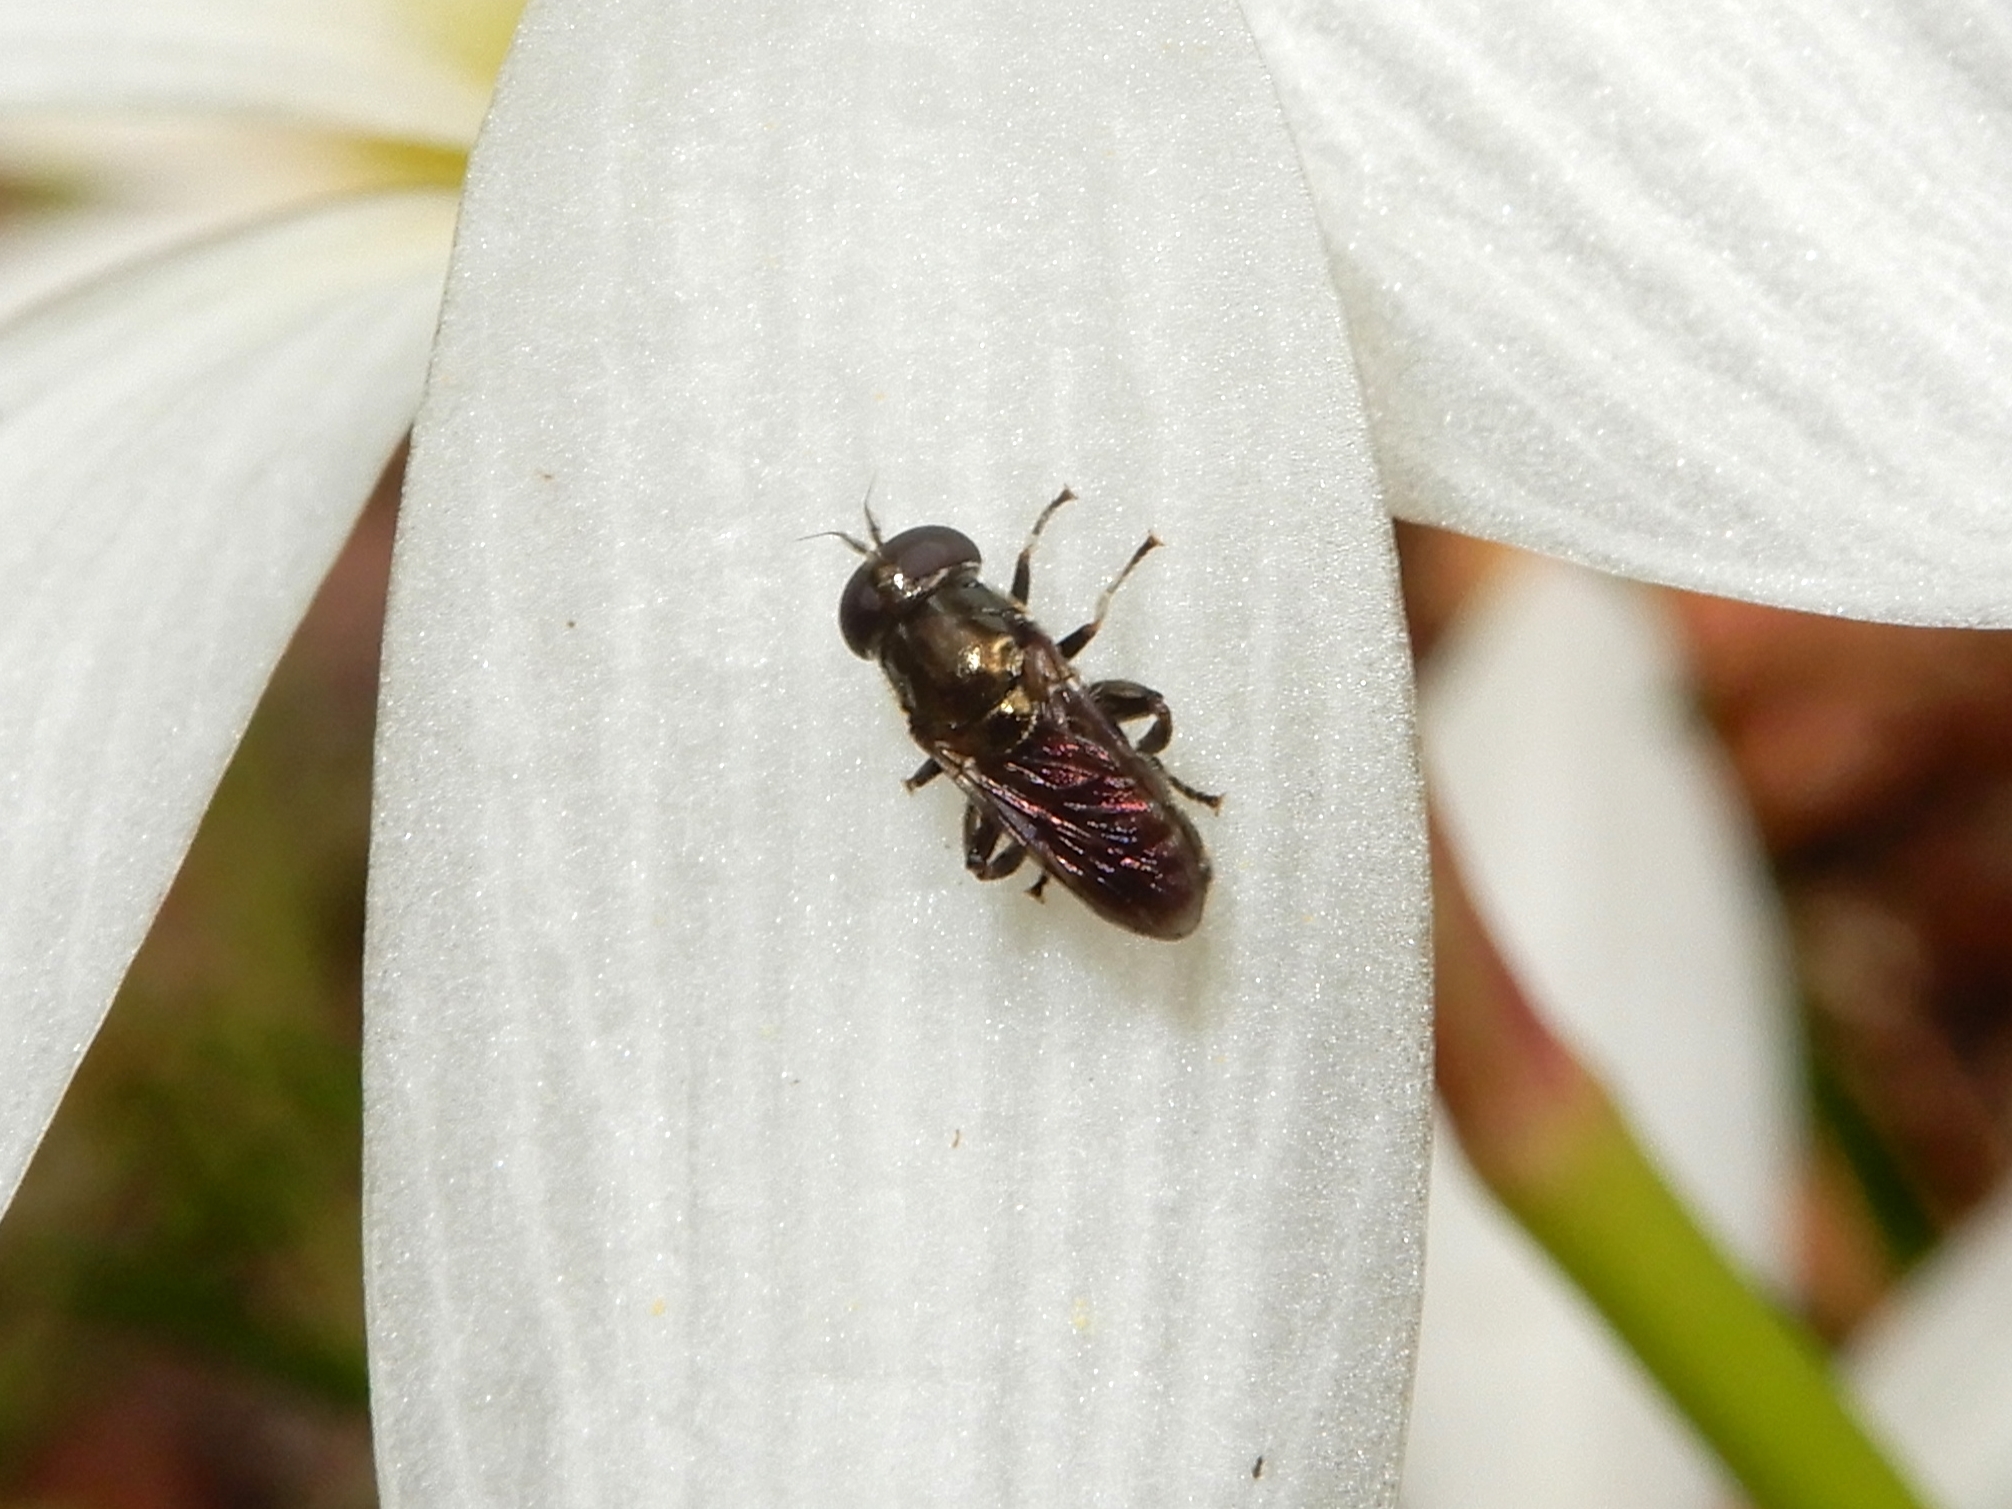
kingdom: Animalia
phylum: Arthropoda
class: Insecta
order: Diptera
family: Syrphidae
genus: Eumerus
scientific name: Eumerus
